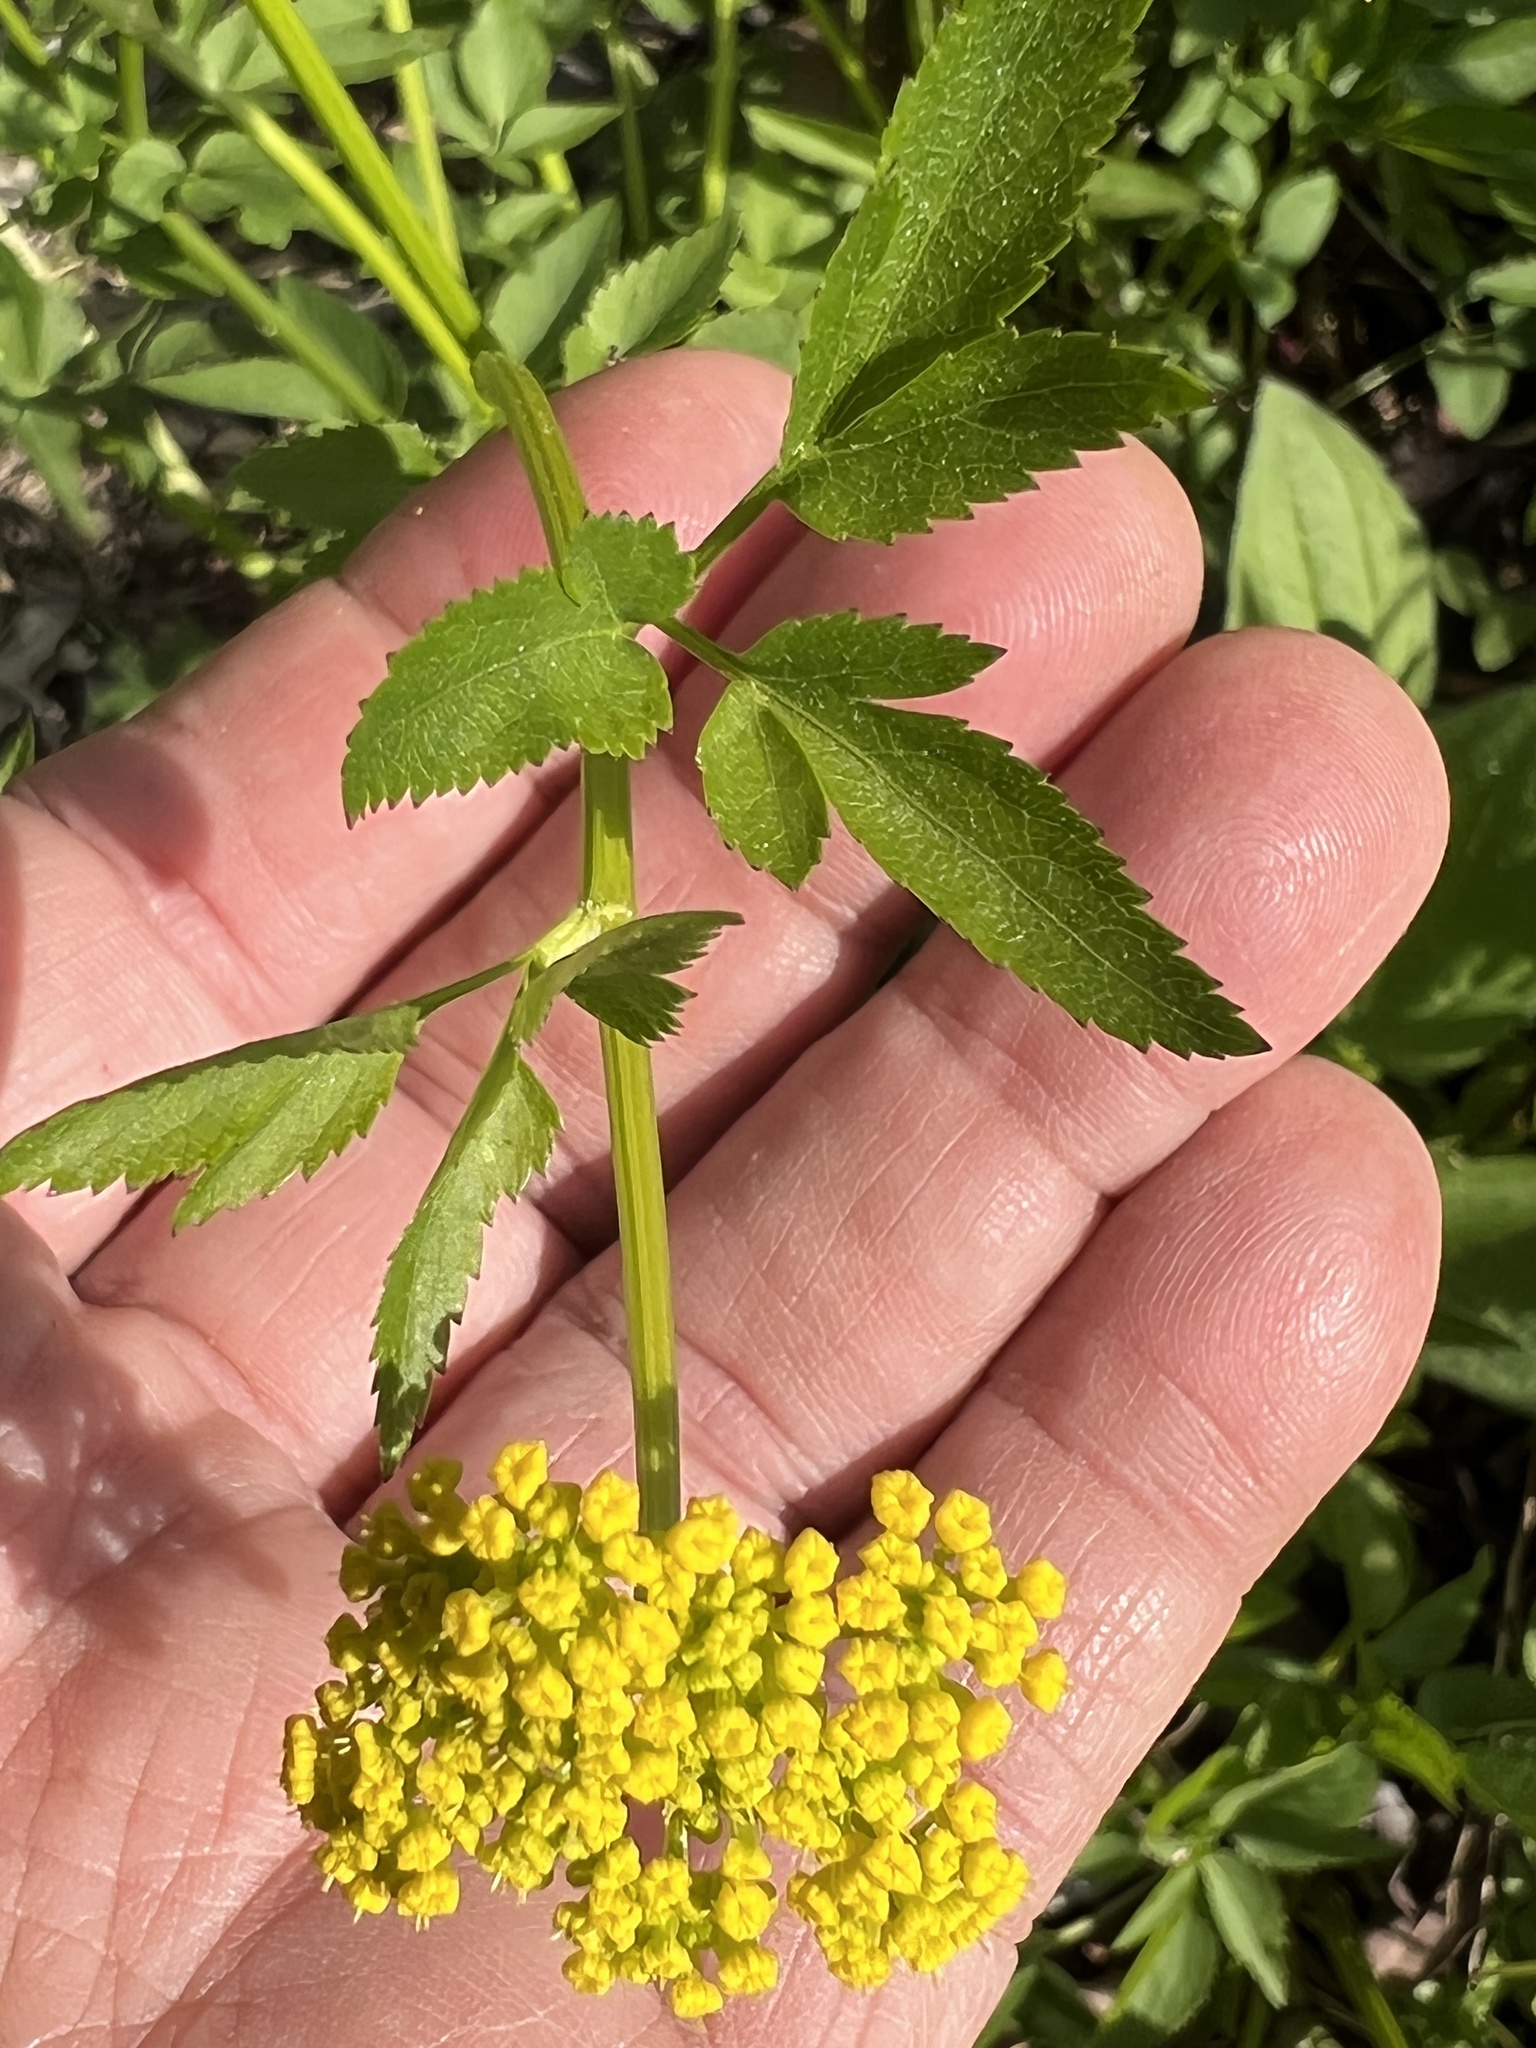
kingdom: Plantae
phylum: Tracheophyta
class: Magnoliopsida
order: Apiales
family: Apiaceae
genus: Zizia
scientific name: Zizia aurea
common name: Golden alexanders
